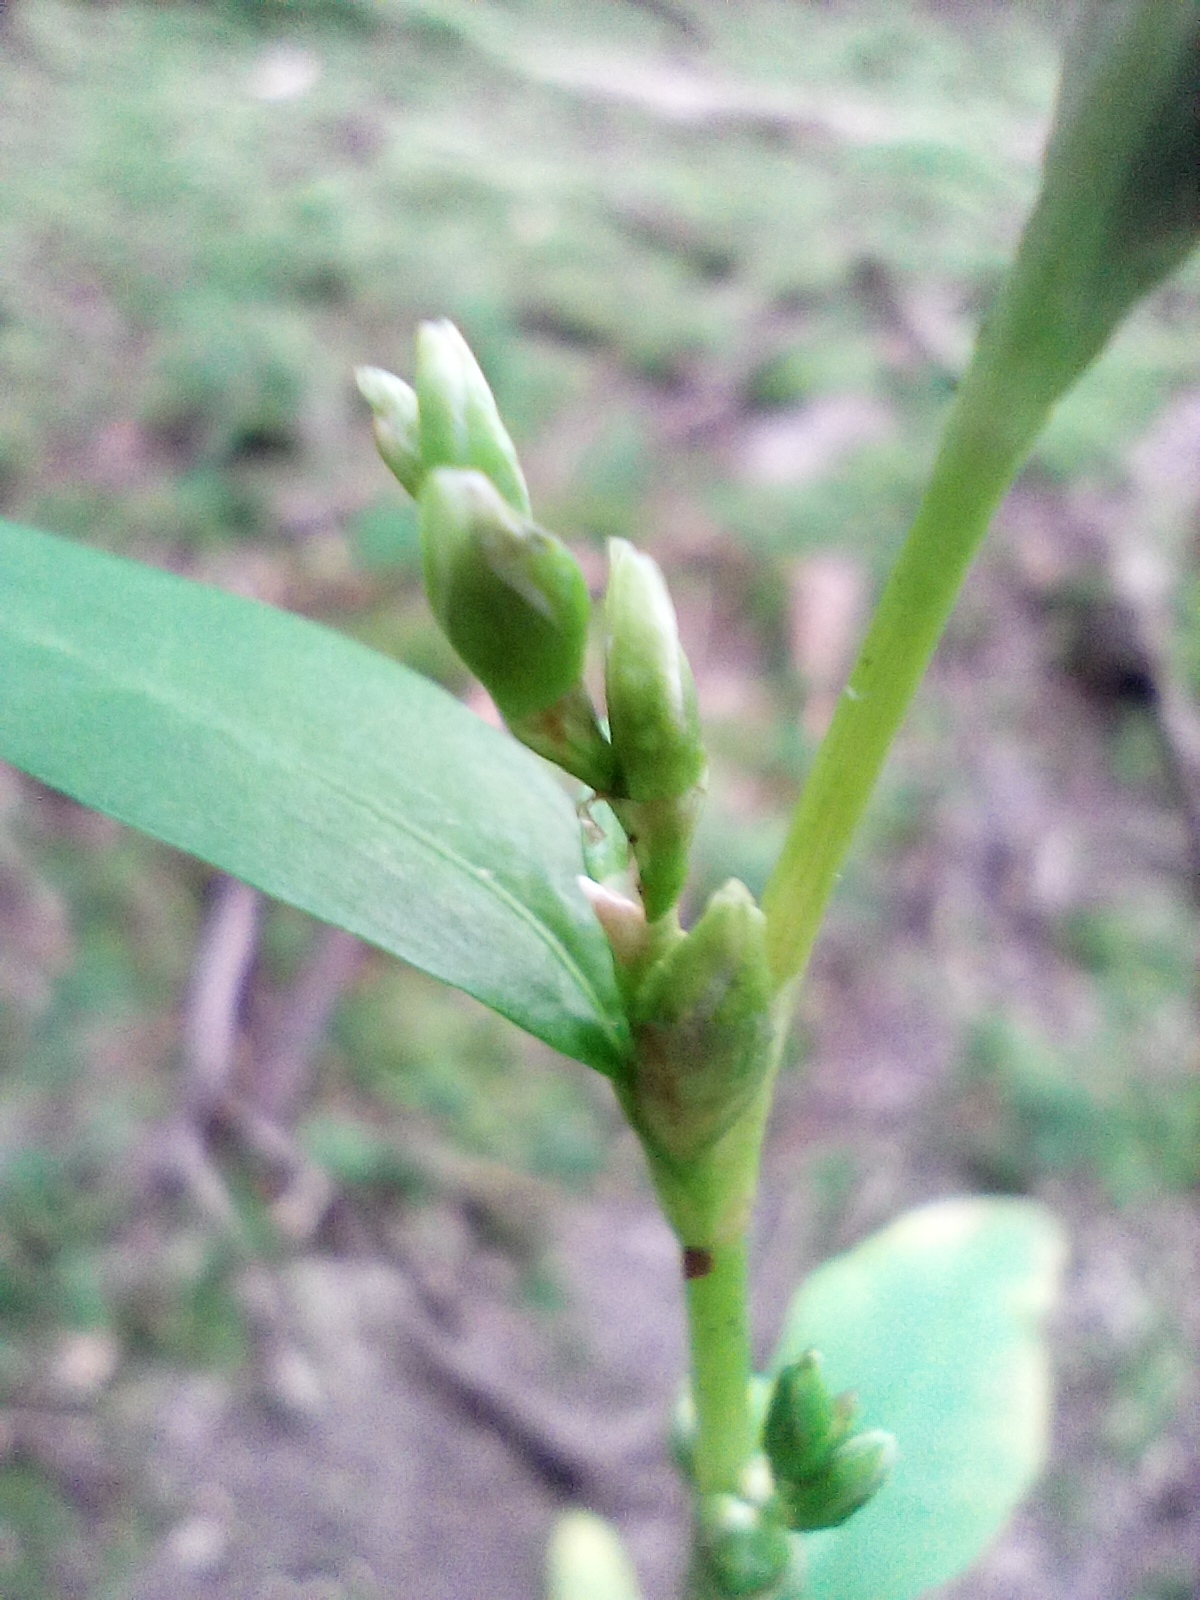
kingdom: Plantae
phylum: Tracheophyta
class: Magnoliopsida
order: Caryophyllales
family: Polygonaceae
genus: Persicaria
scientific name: Persicaria hydropiper
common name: Water-pepper
